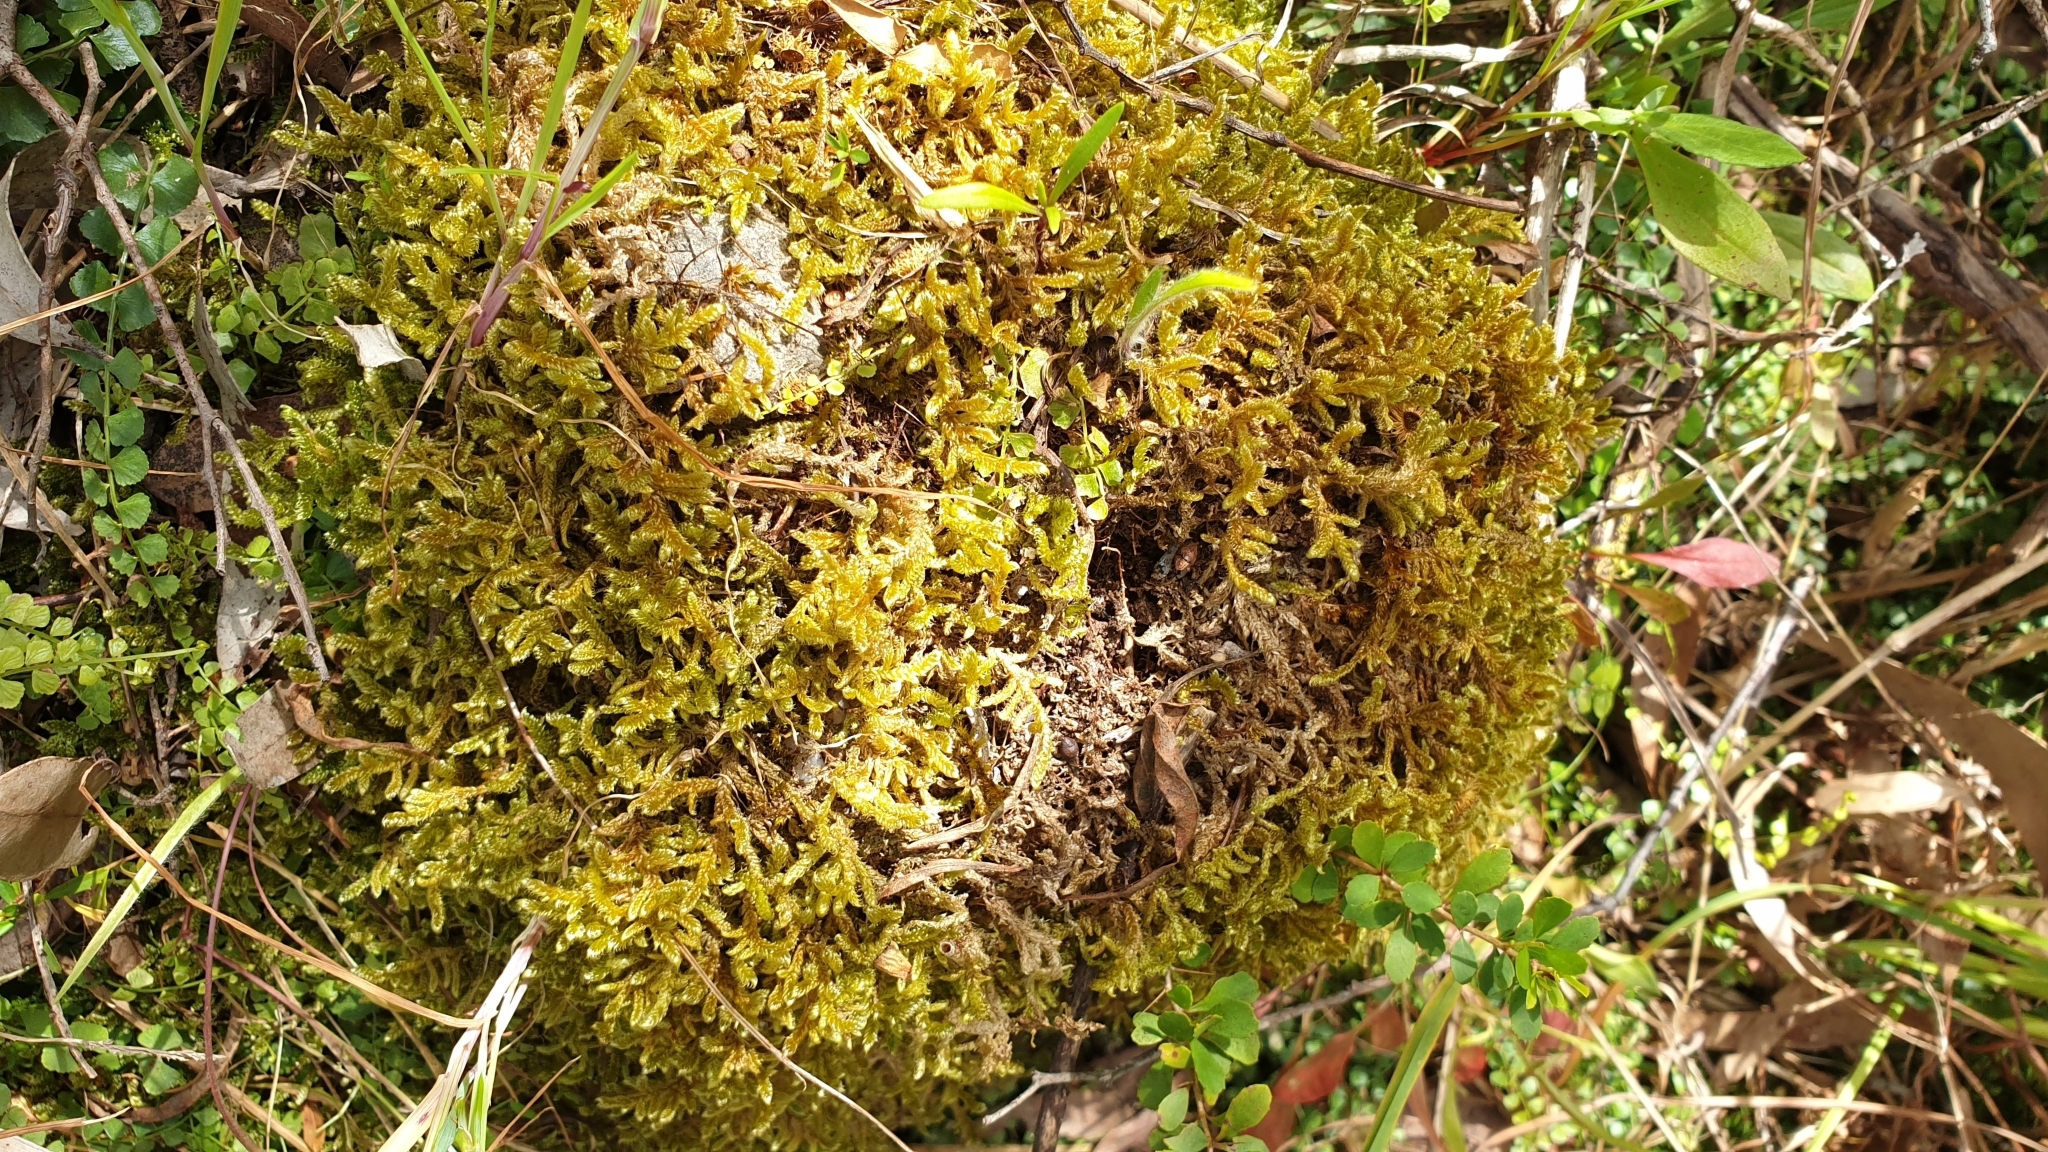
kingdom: Plantae
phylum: Bryophyta
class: Bryopsida
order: Hypnales
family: Hypnaceae
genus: Hypnum
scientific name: Hypnum cupressiforme
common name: Cypress-leaved plait-moss
